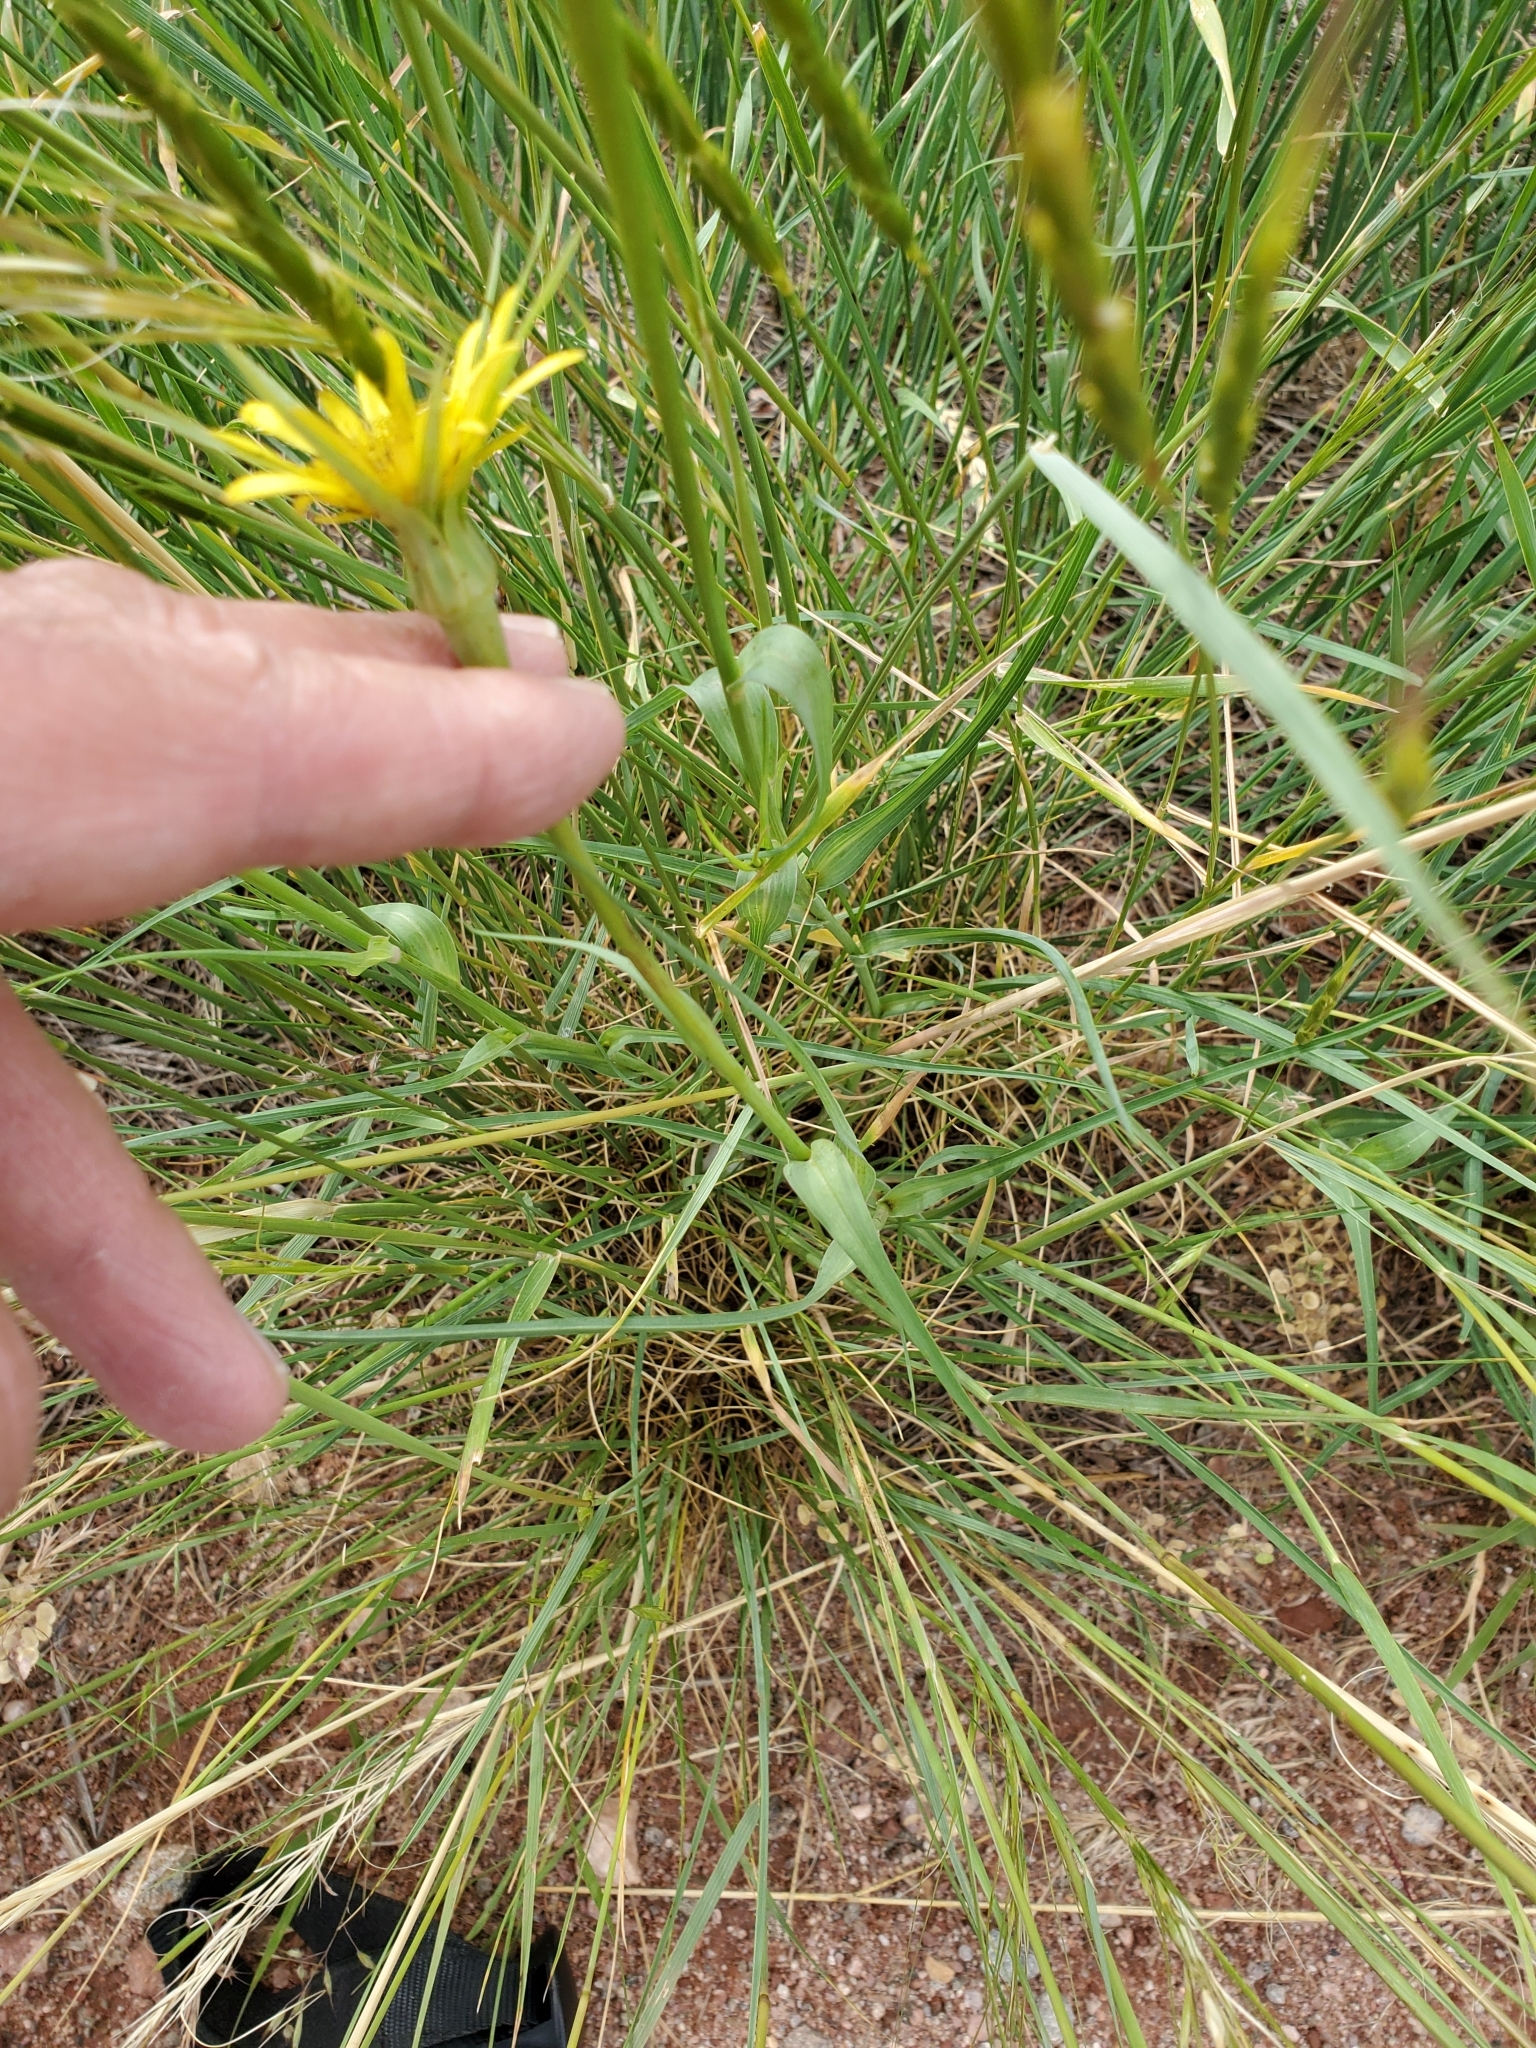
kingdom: Plantae
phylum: Tracheophyta
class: Magnoliopsida
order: Asterales
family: Asteraceae
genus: Tragopogon
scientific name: Tragopogon dubius
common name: Yellow salsify
